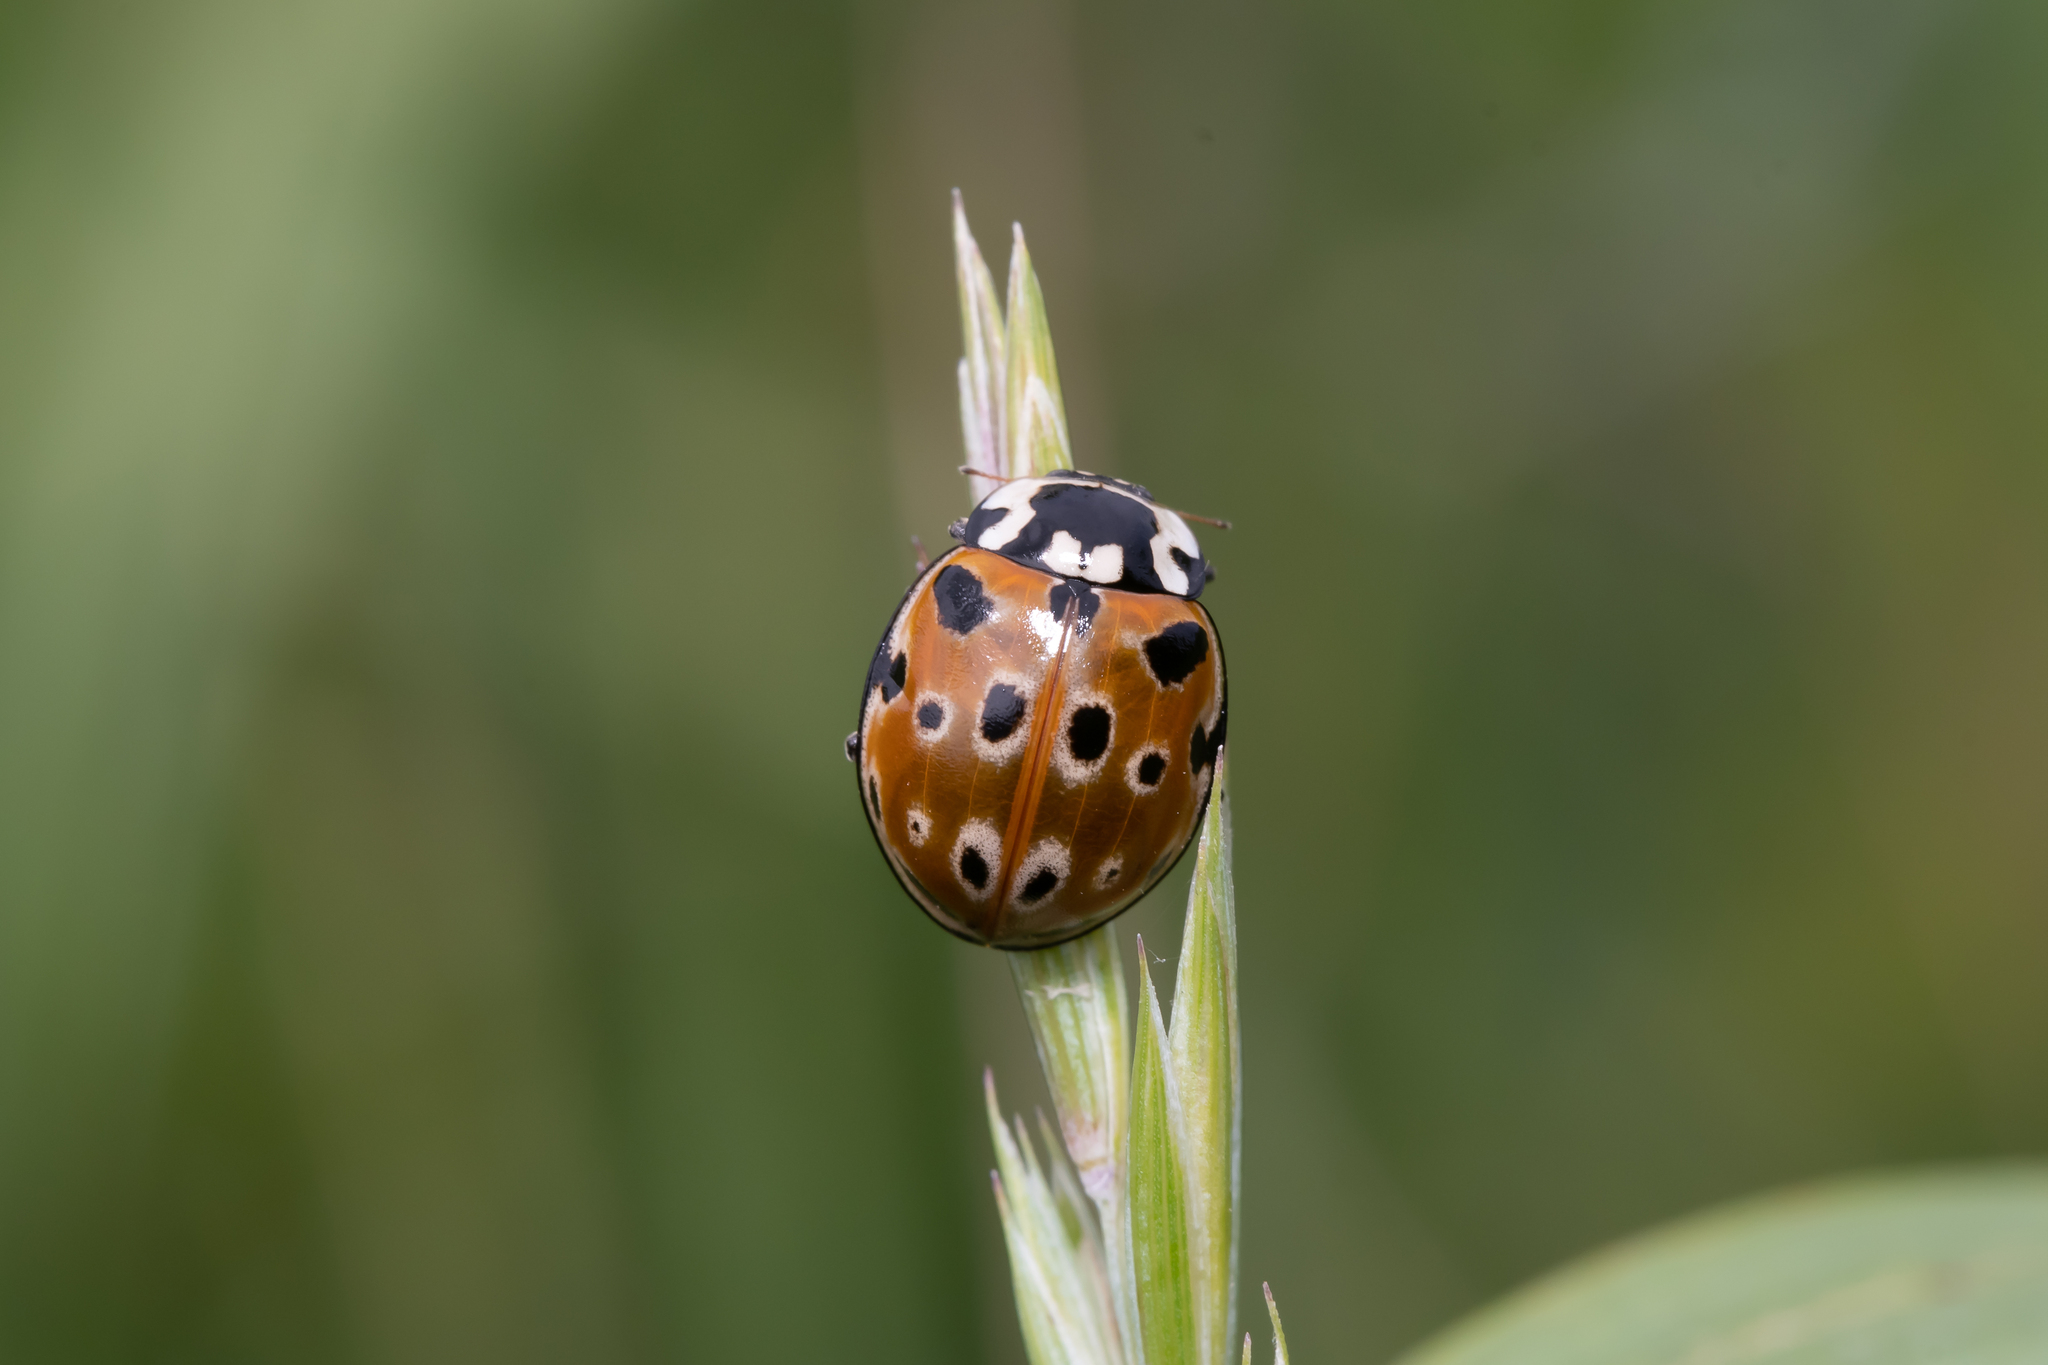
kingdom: Animalia
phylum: Arthropoda
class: Insecta
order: Coleoptera
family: Coccinellidae
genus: Anatis
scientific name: Anatis ocellata
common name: Eyed ladybird
